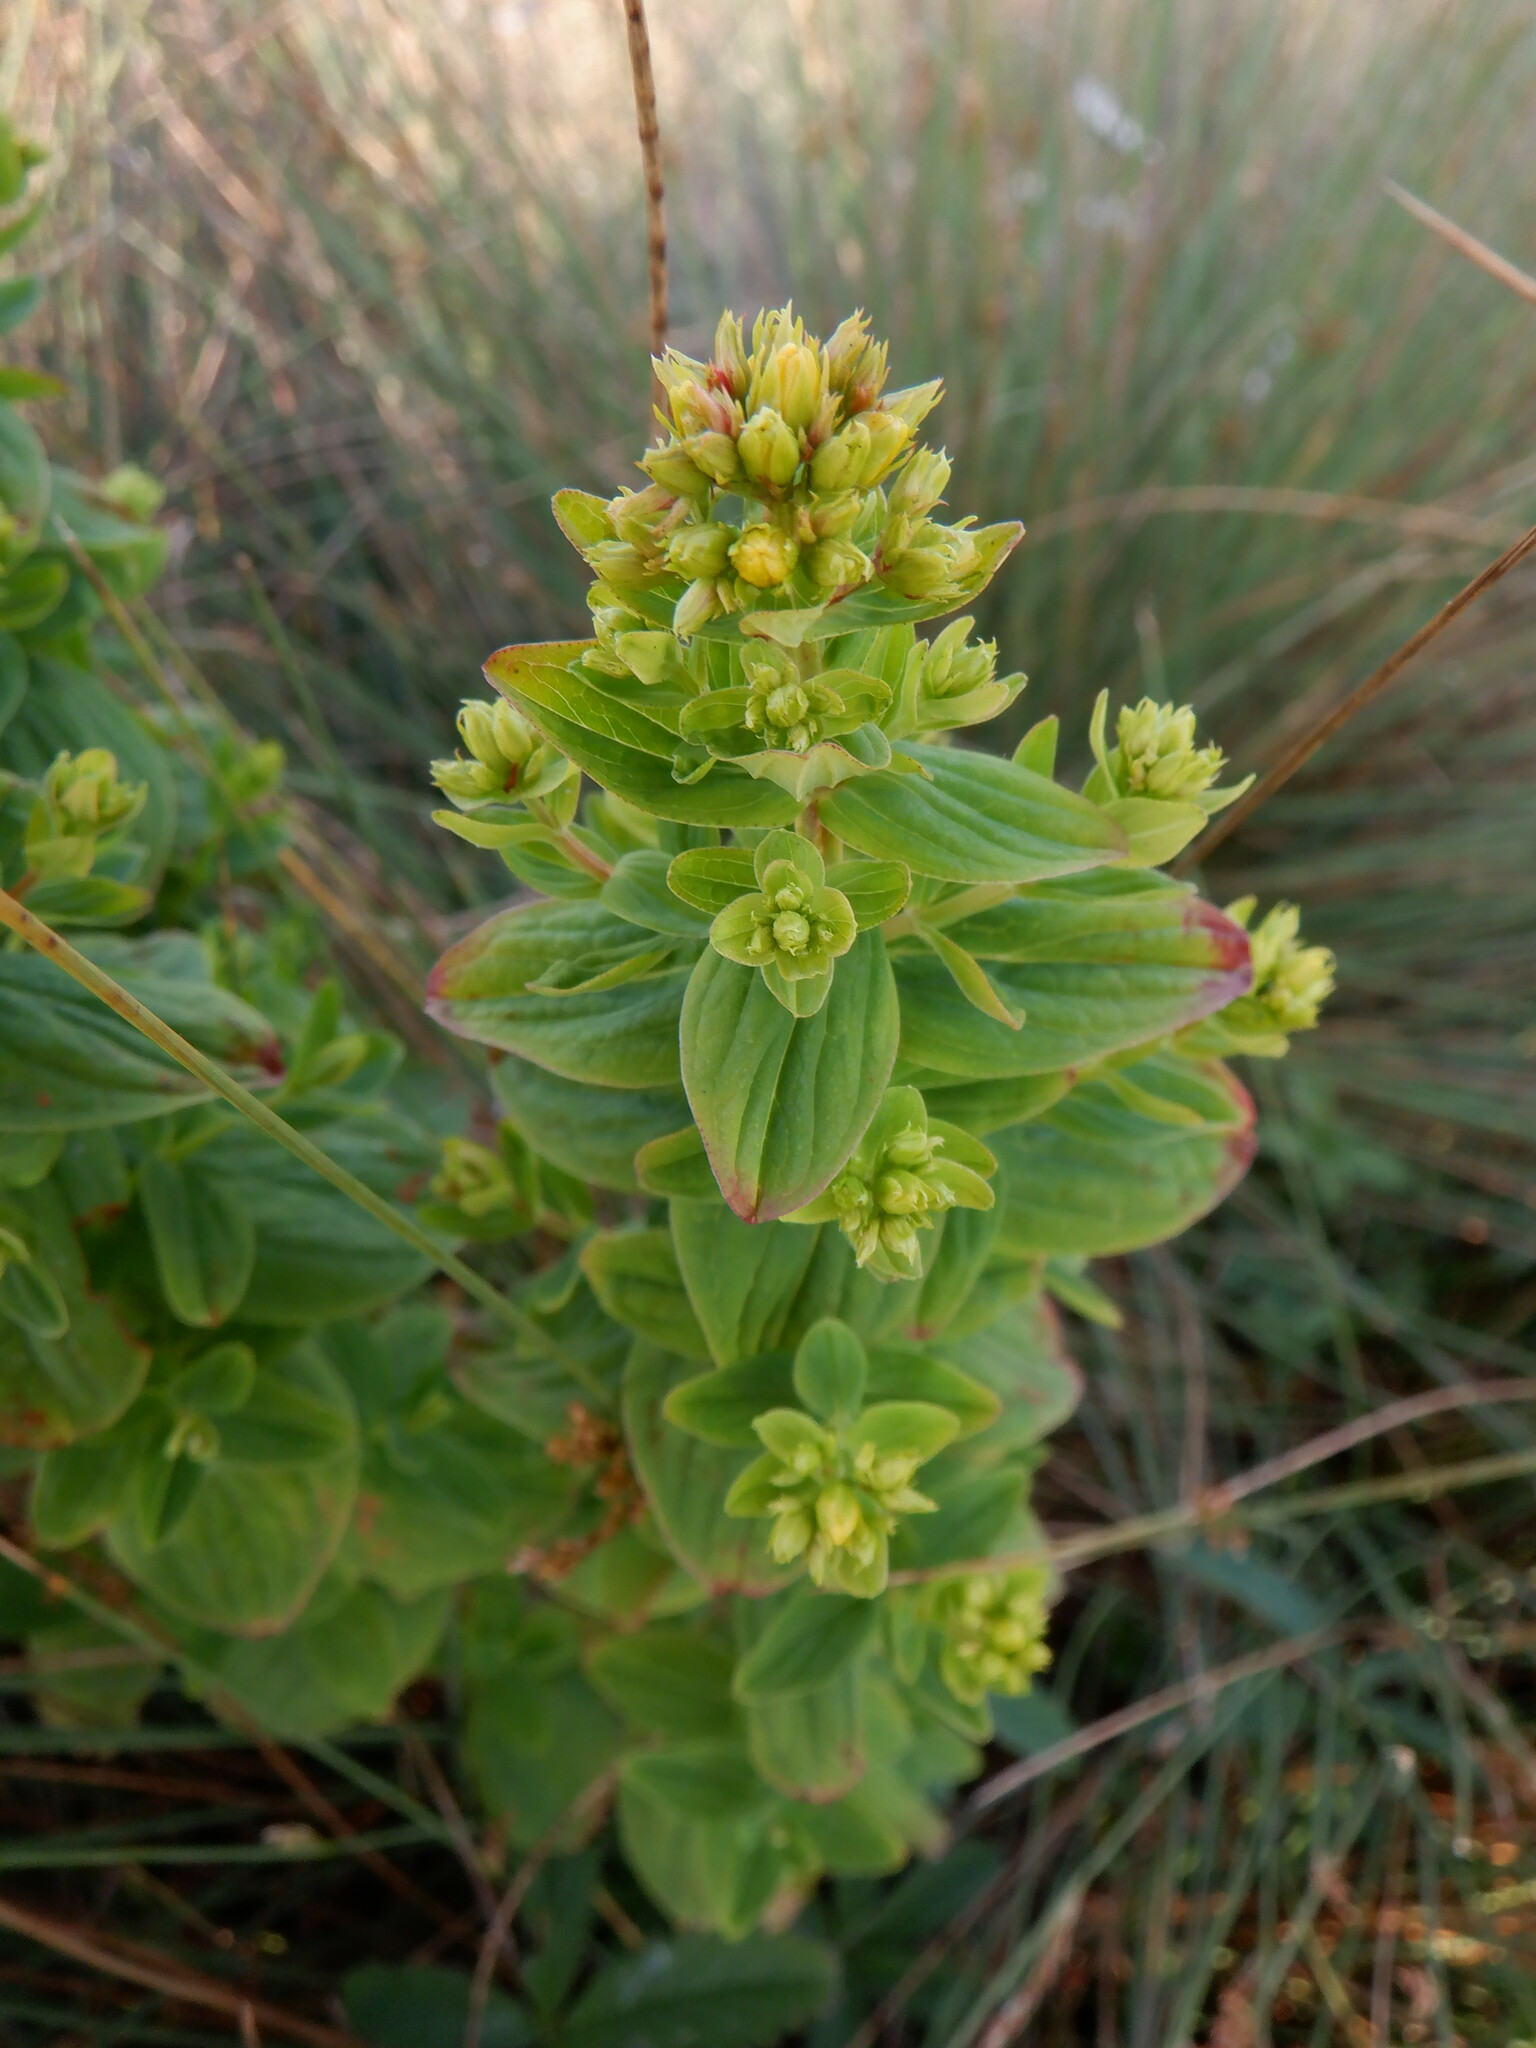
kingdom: Plantae
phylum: Tracheophyta
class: Magnoliopsida
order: Malpighiales
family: Hypericaceae
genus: Hypericum
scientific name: Hypericum tetrapterum
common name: Square-stalked st. john's-wort
